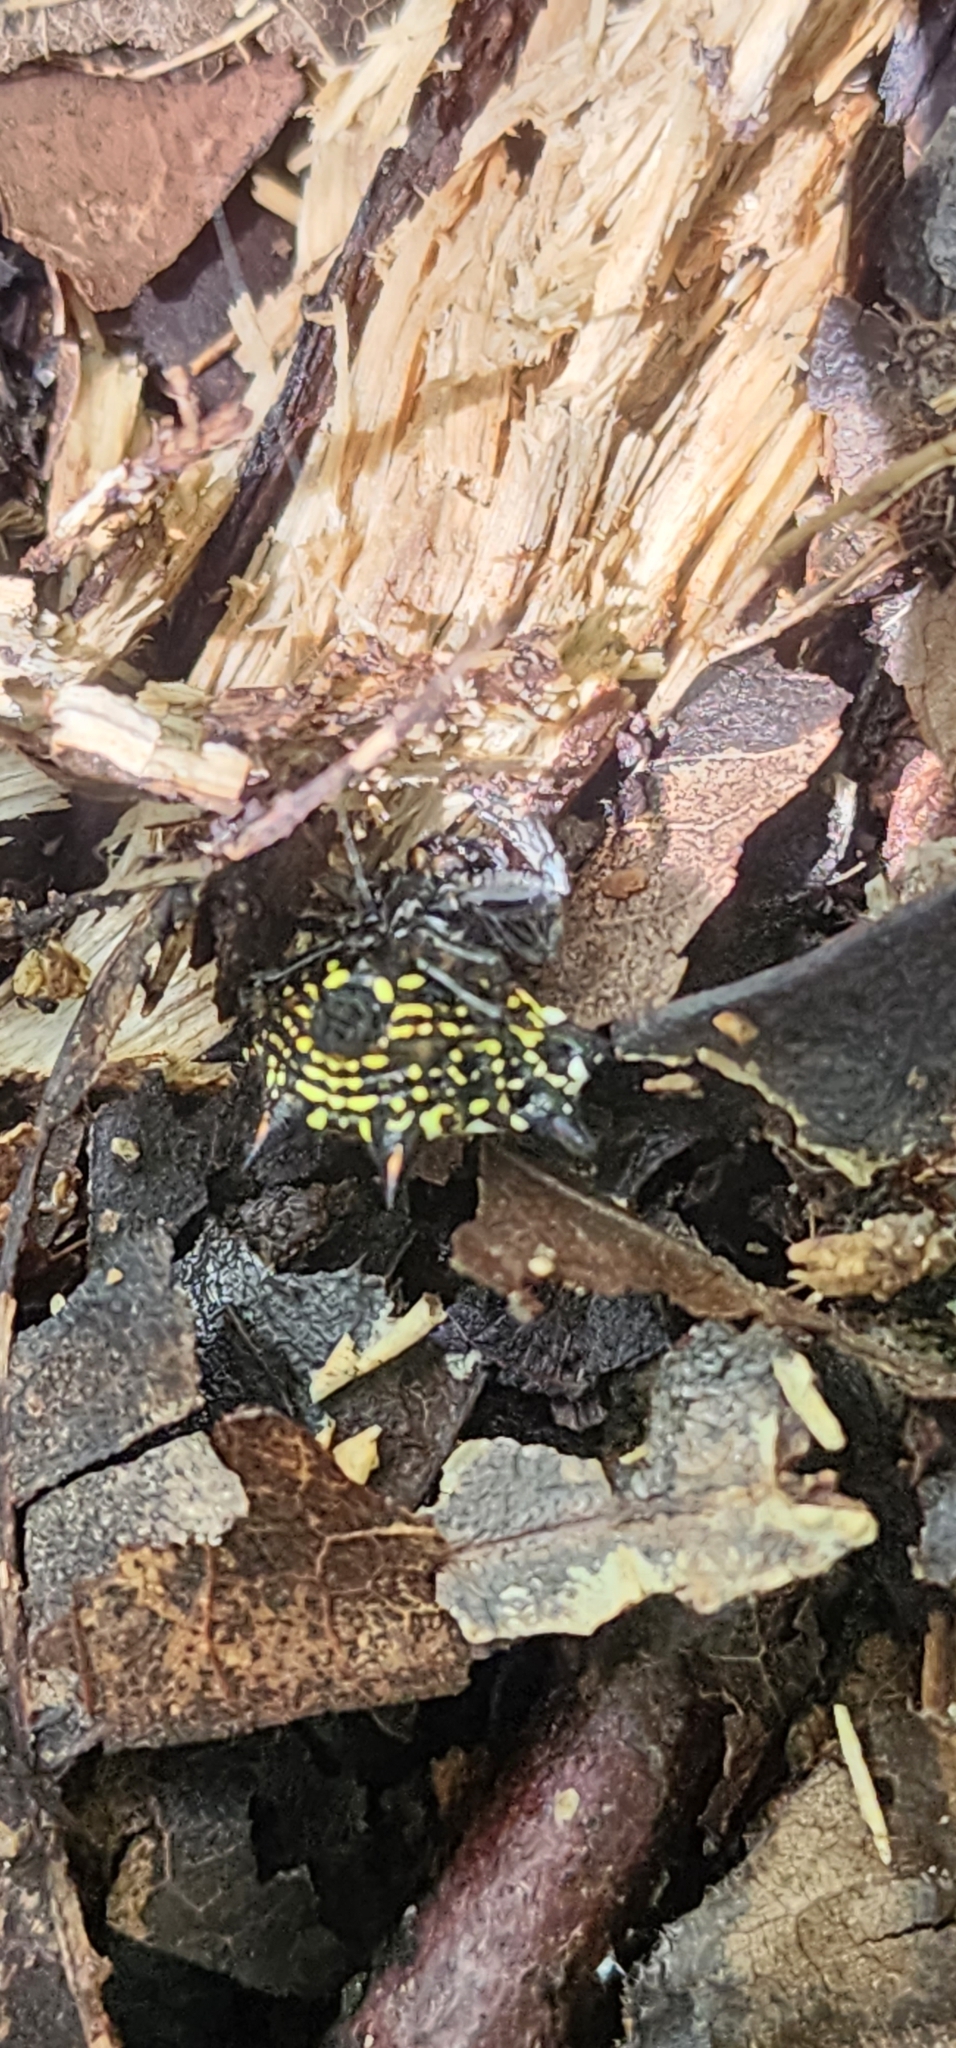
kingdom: Animalia
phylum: Arthropoda
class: Arachnida
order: Araneae
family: Araneidae
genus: Gasteracantha
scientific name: Gasteracantha cancriformis
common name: Orb weavers
